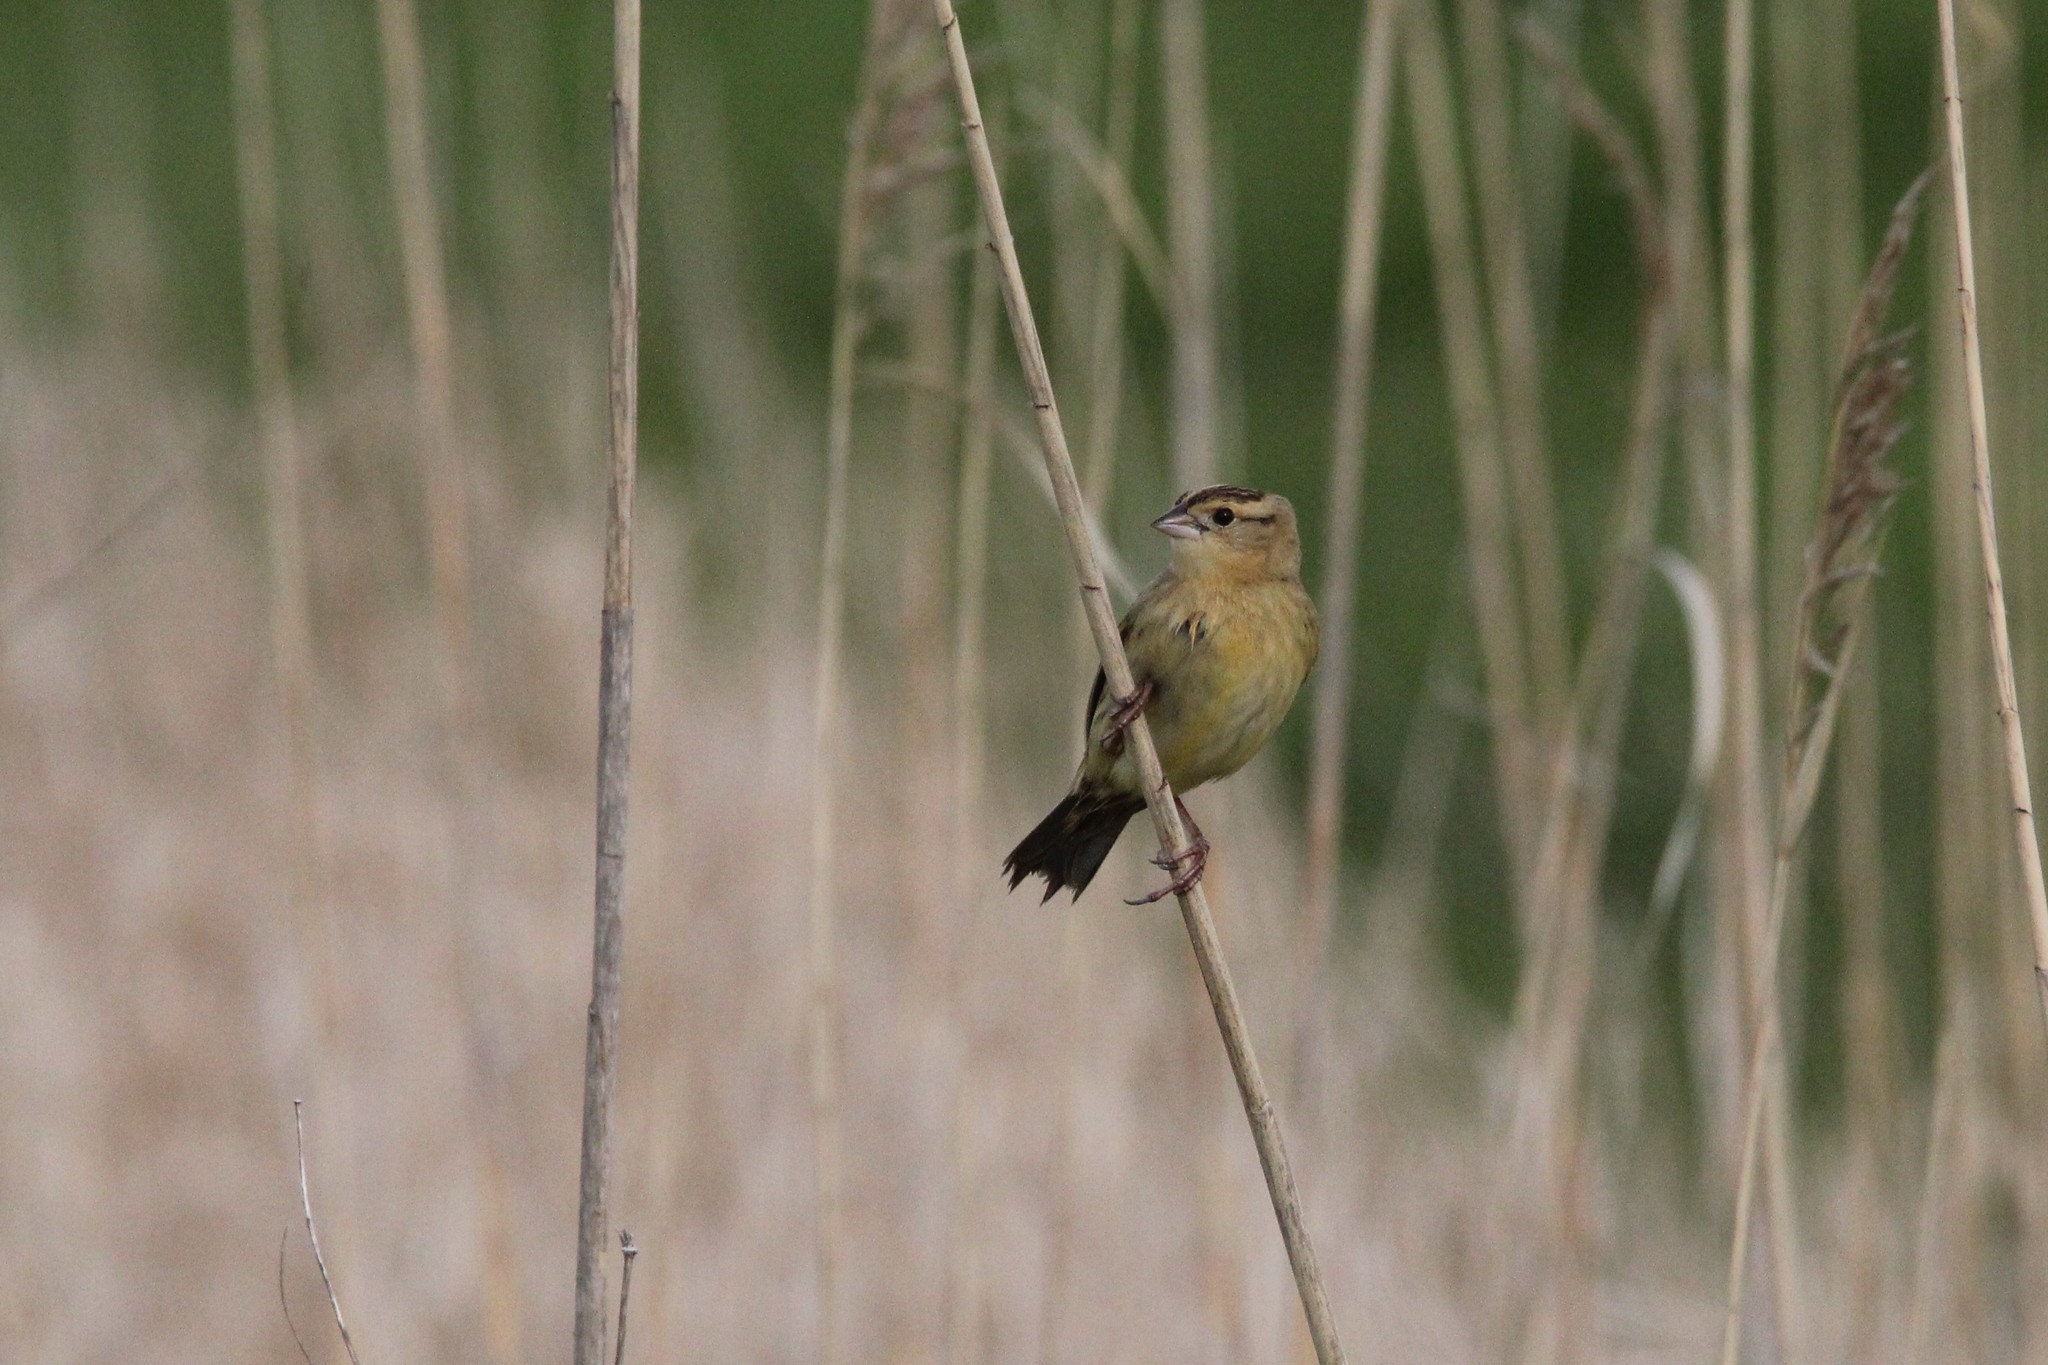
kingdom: Animalia
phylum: Chordata
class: Aves
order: Passeriformes
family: Icteridae
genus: Dolichonyx
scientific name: Dolichonyx oryzivorus
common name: Bobolink
